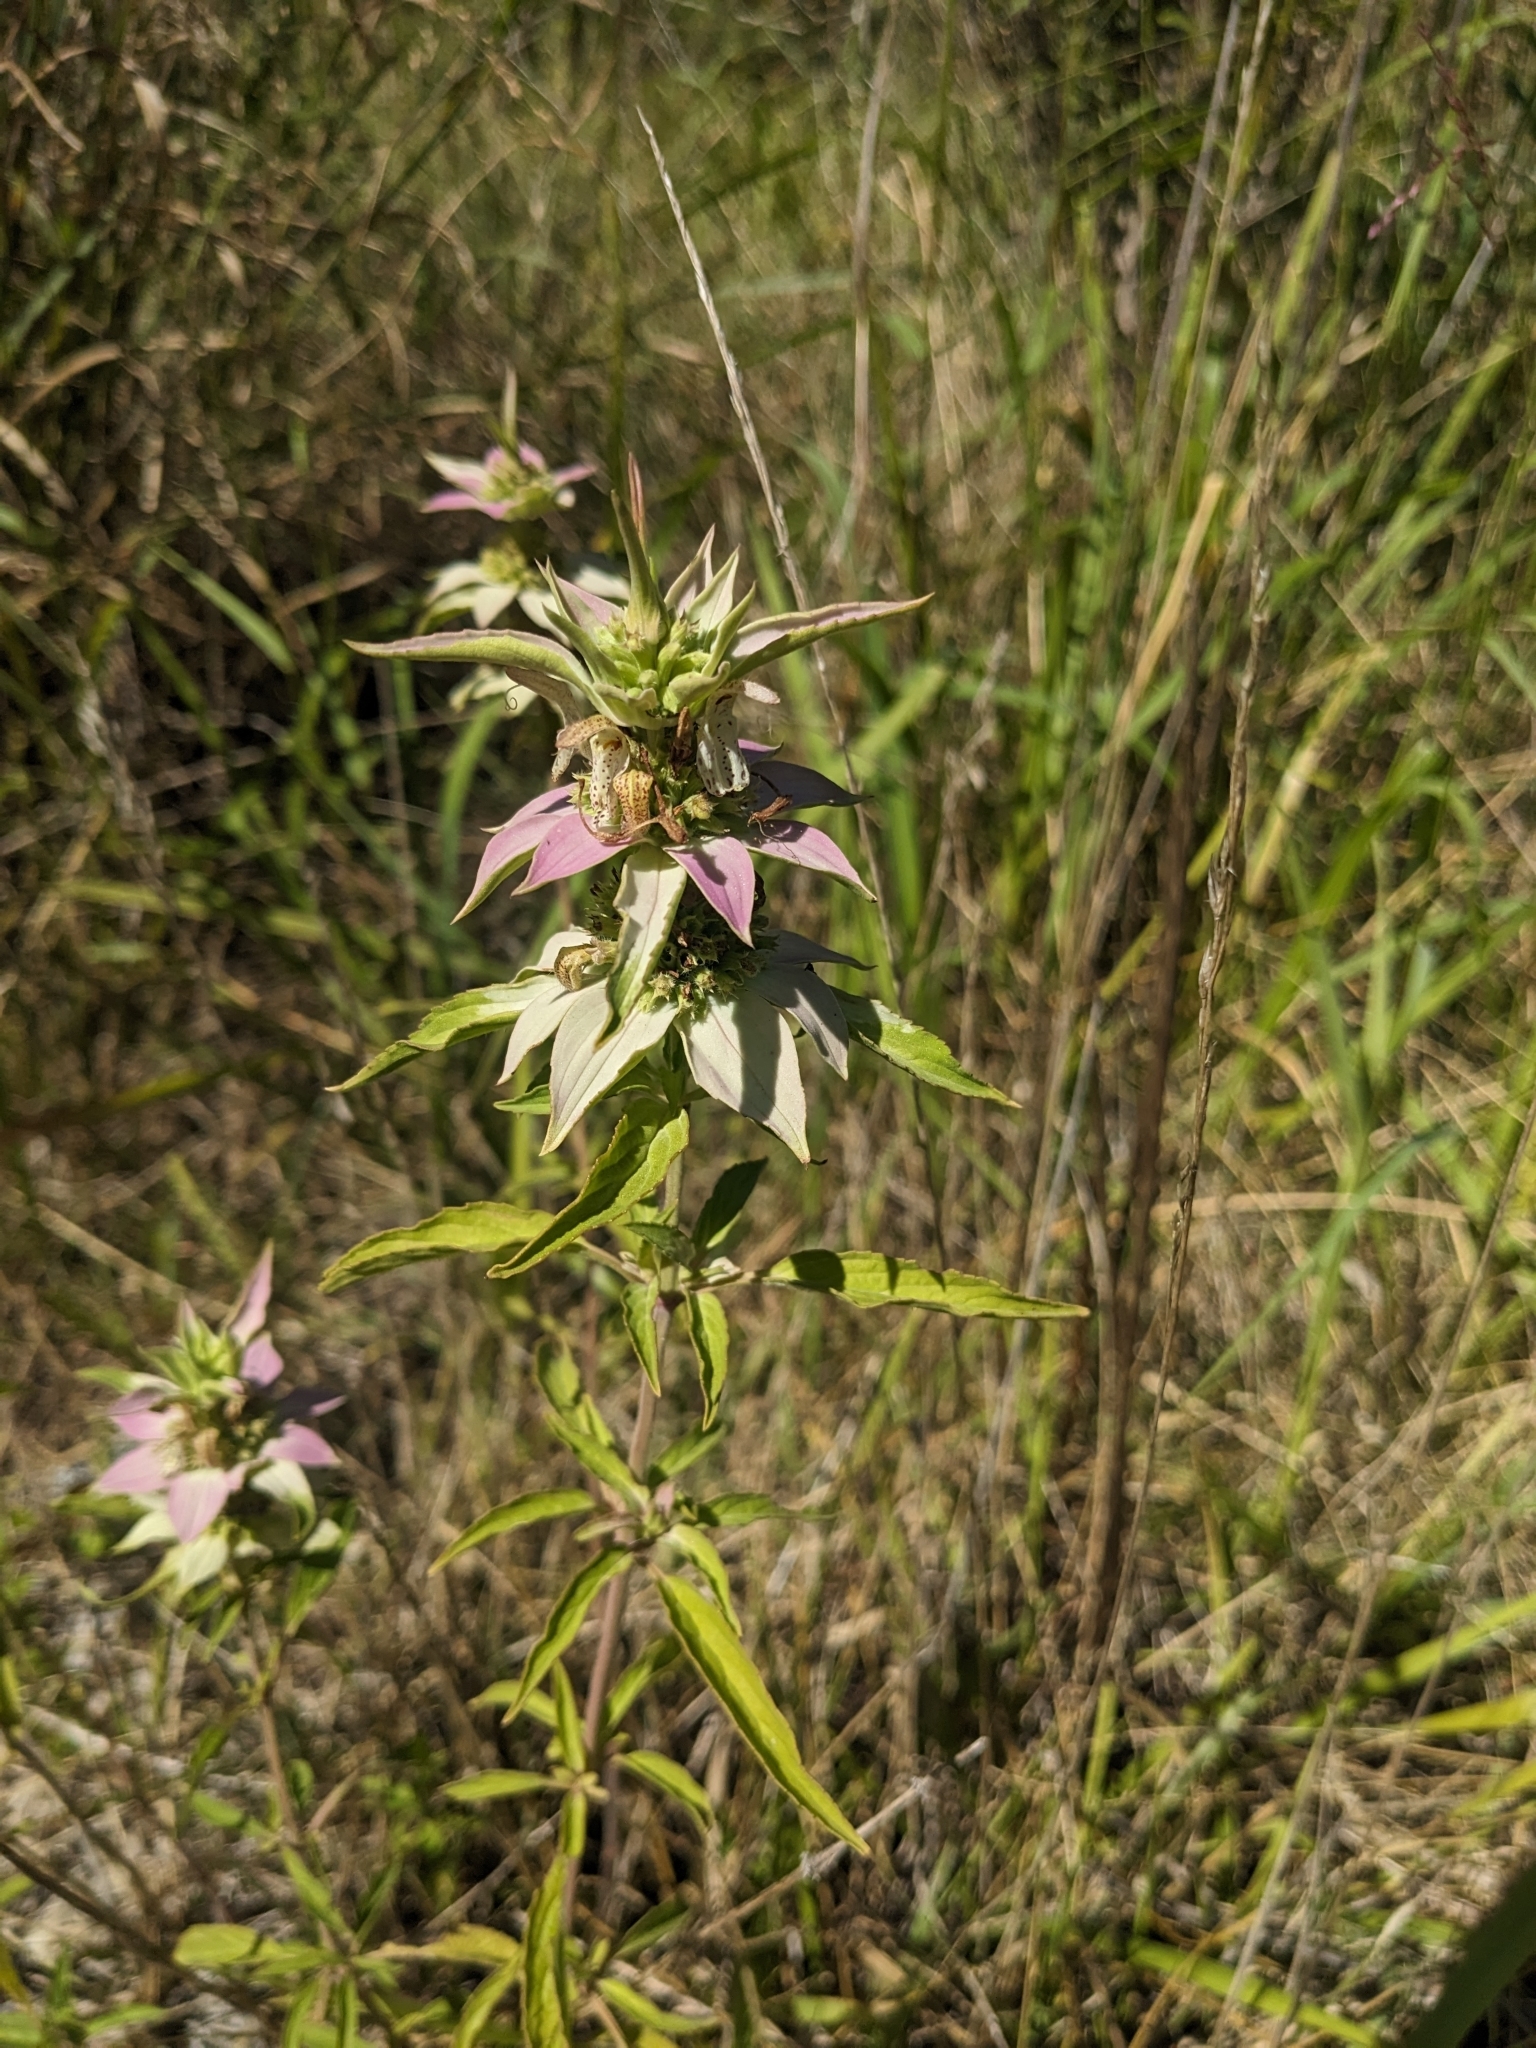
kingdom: Plantae
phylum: Tracheophyta
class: Magnoliopsida
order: Lamiales
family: Lamiaceae
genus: Monarda
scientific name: Monarda punctata
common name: Dotted monarda
